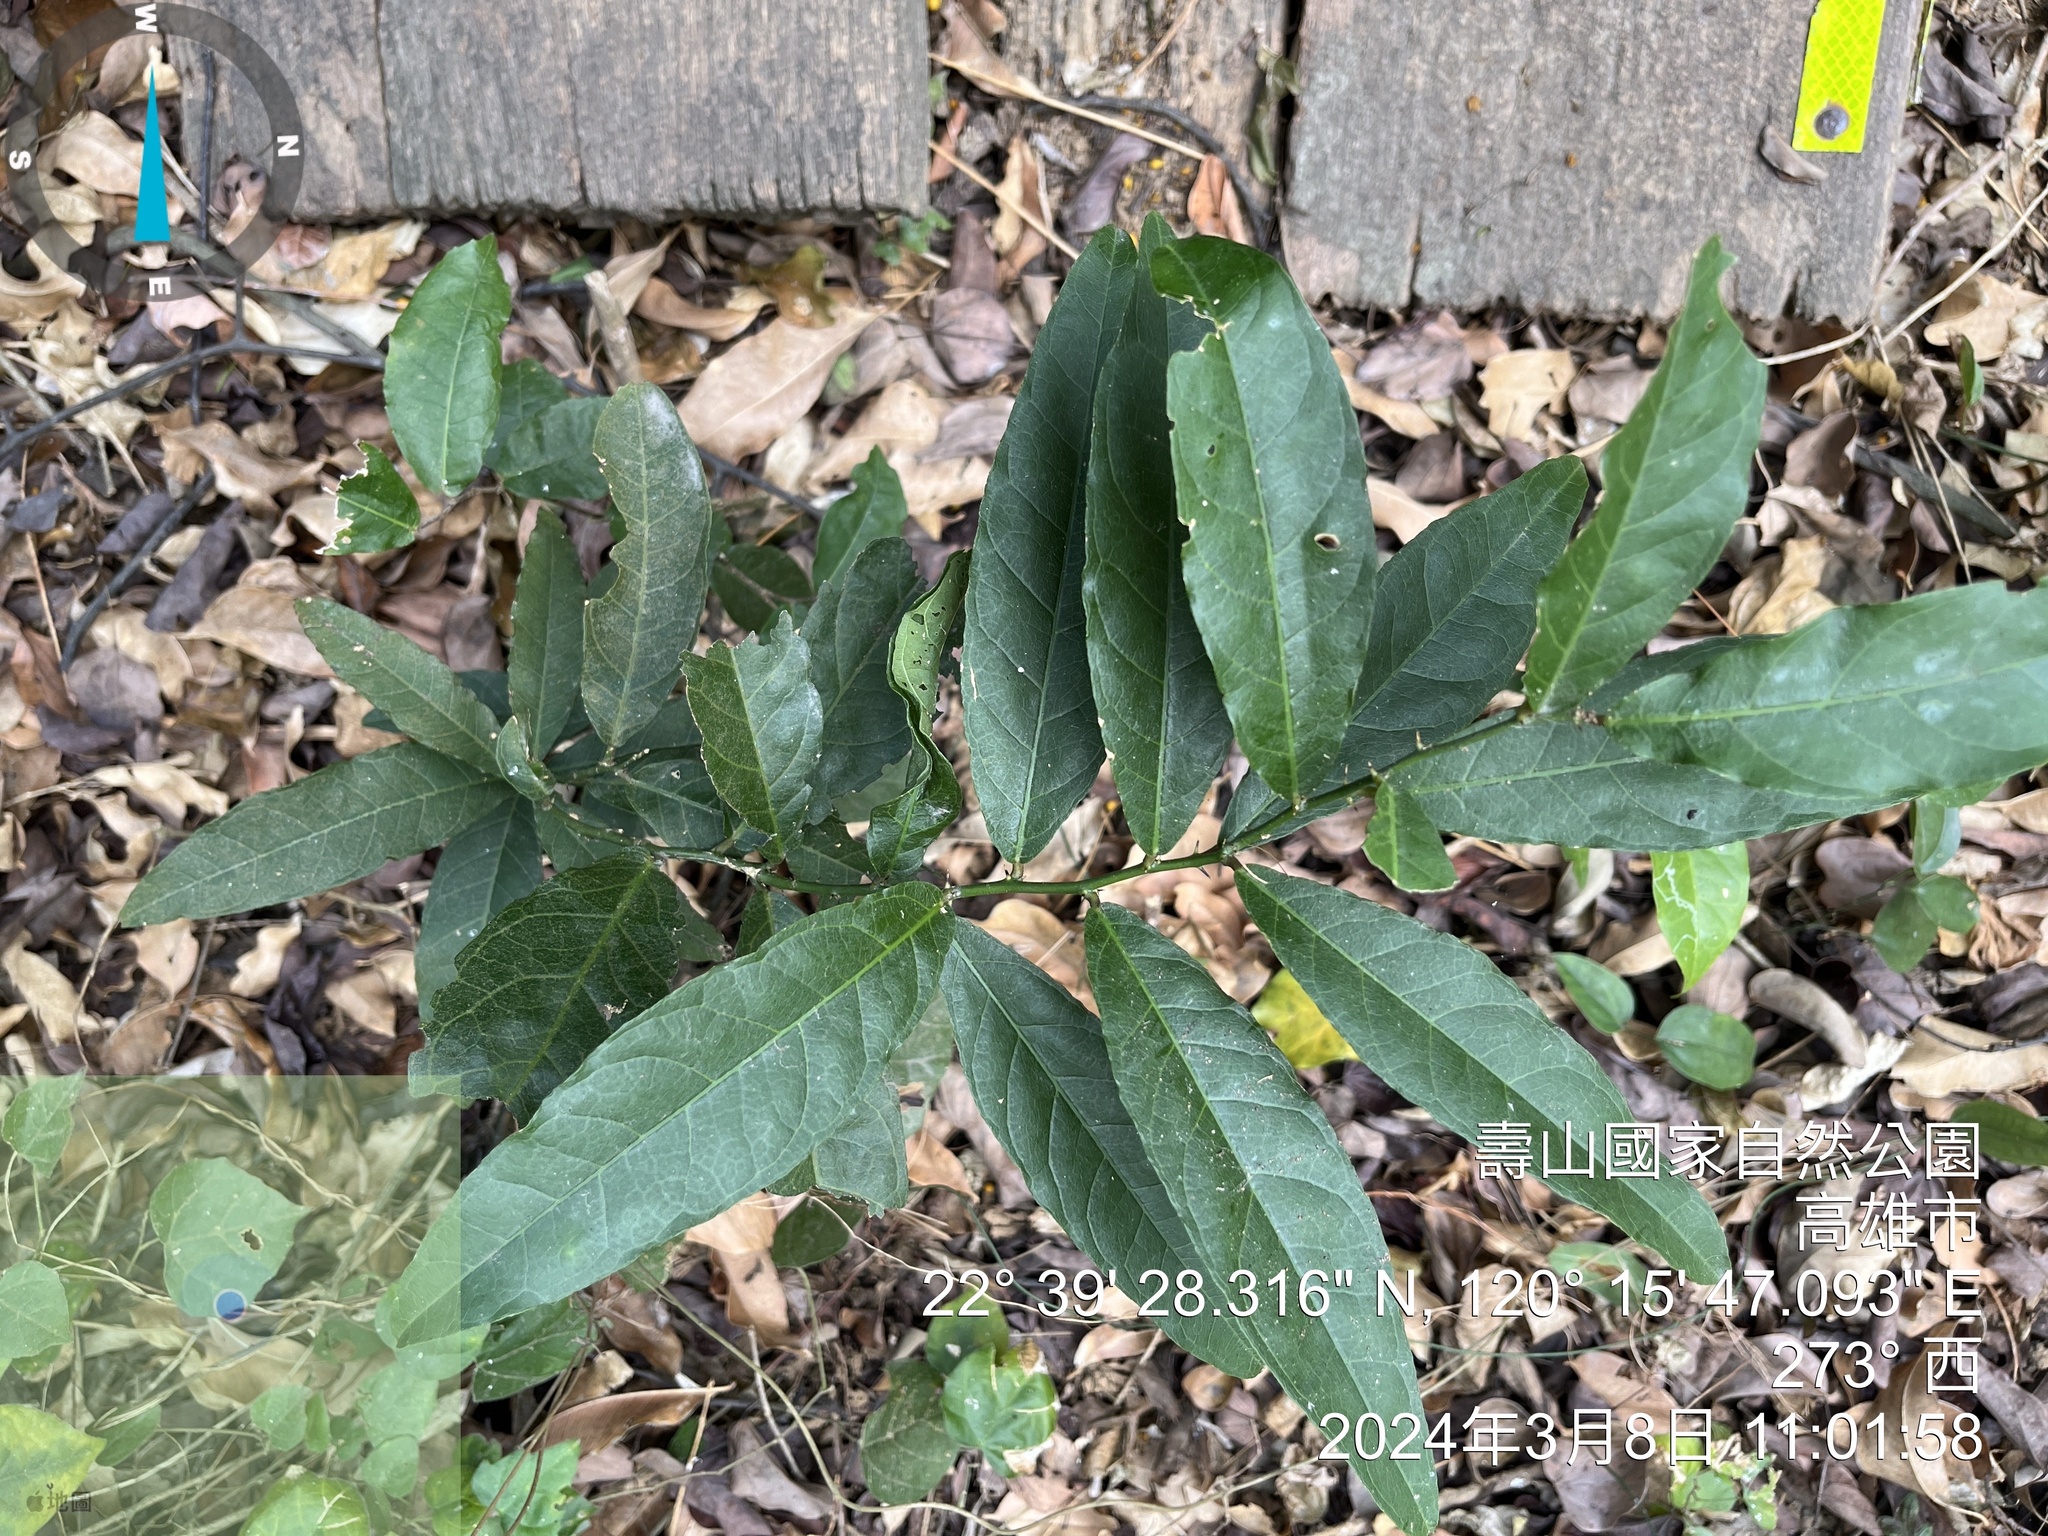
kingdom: Plantae
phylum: Tracheophyta
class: Magnoliopsida
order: Brassicales
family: Capparaceae
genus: Capparis
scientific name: Capparis micracantha
